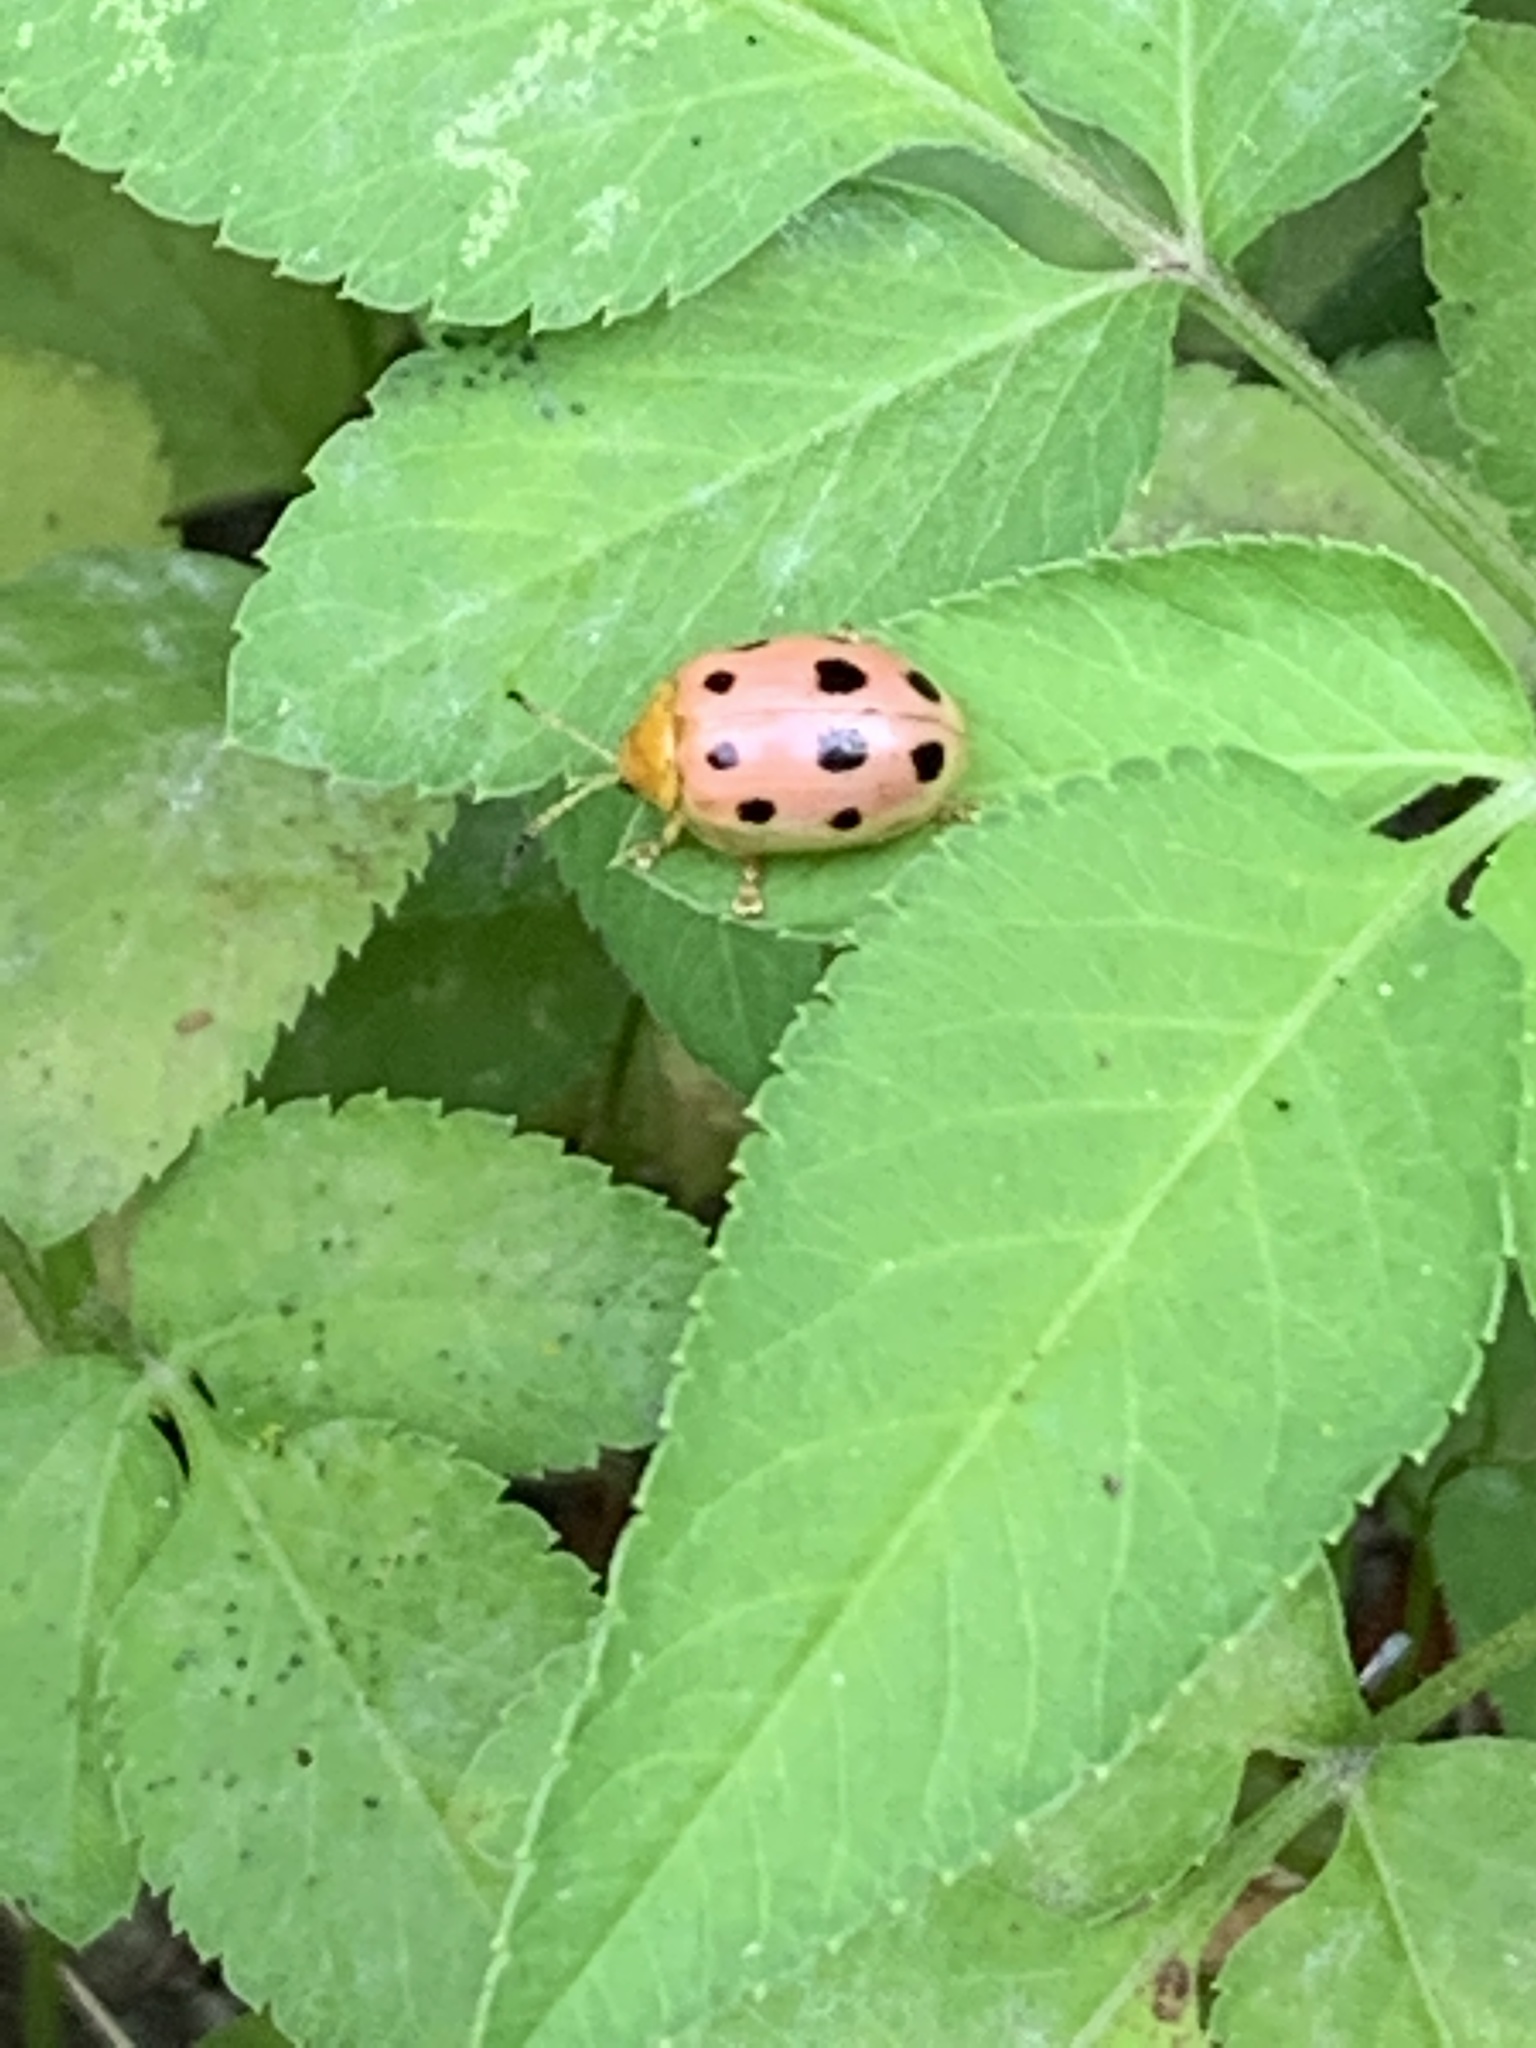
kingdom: Animalia
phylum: Arthropoda
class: Insecta
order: Coleoptera
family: Chrysomelidae
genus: Oides
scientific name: Oides decempunctata
